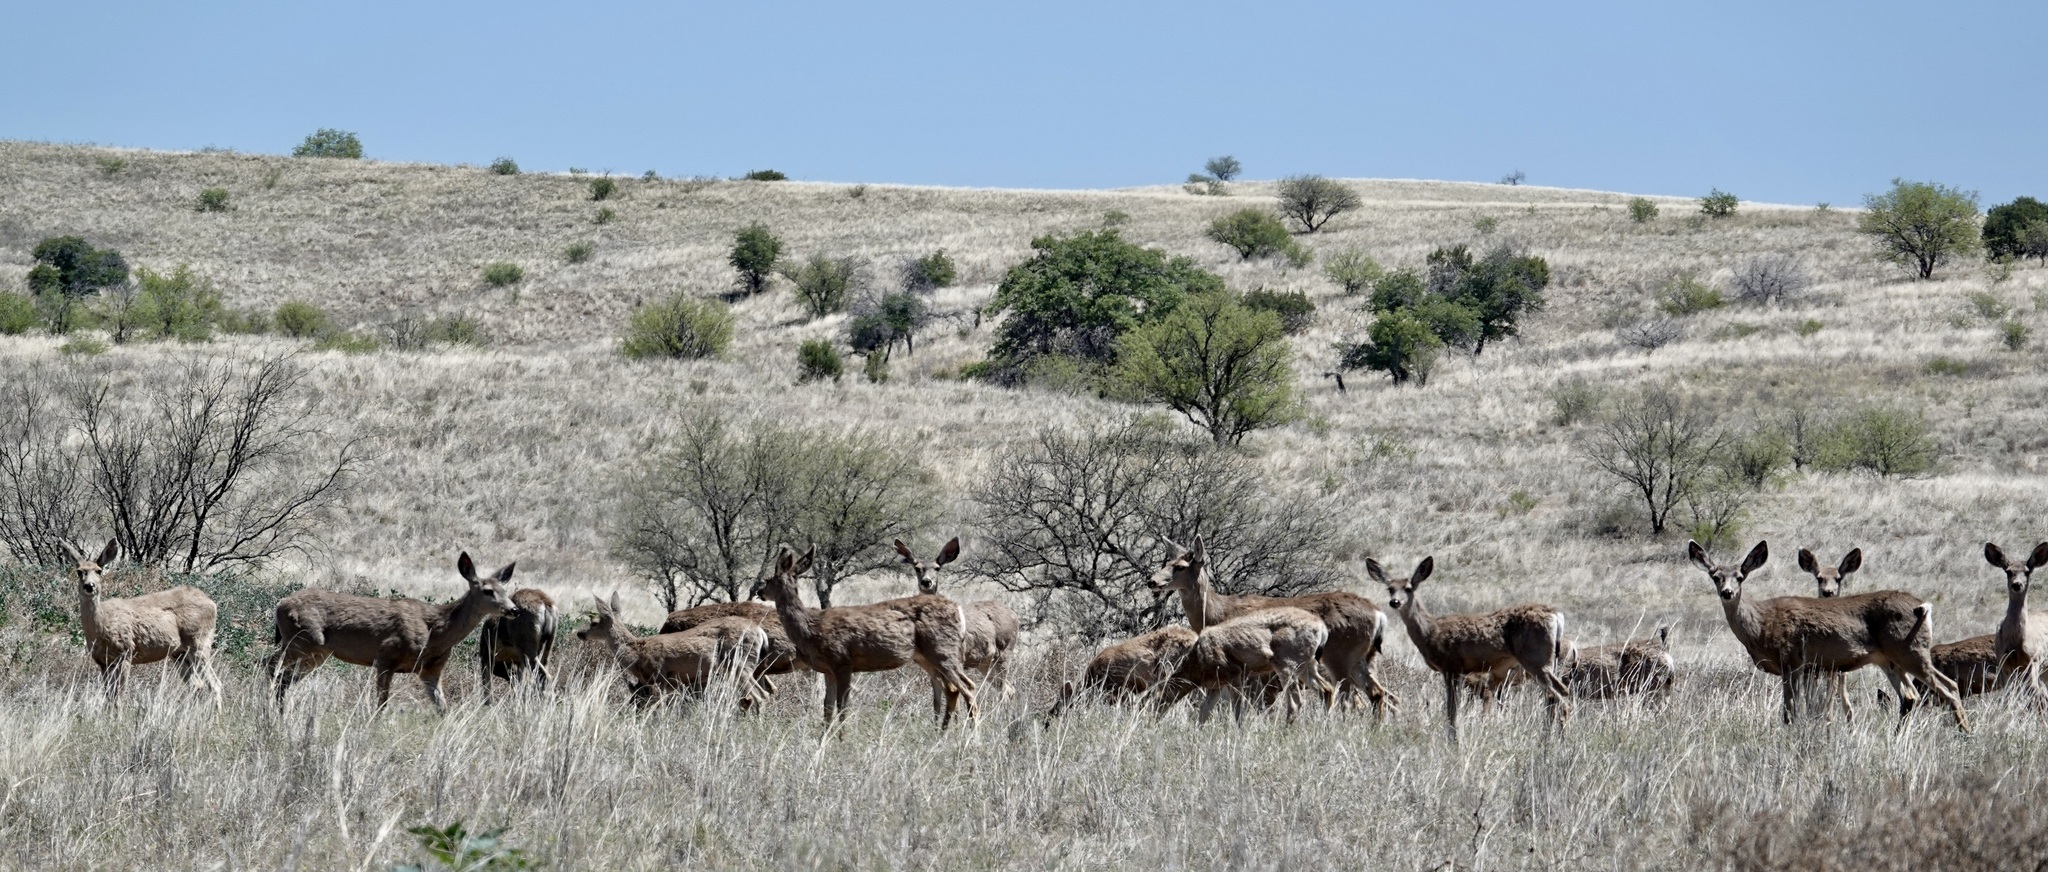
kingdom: Animalia
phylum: Chordata
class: Mammalia
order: Artiodactyla
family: Cervidae
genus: Odocoileus
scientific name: Odocoileus hemionus
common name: Mule deer
